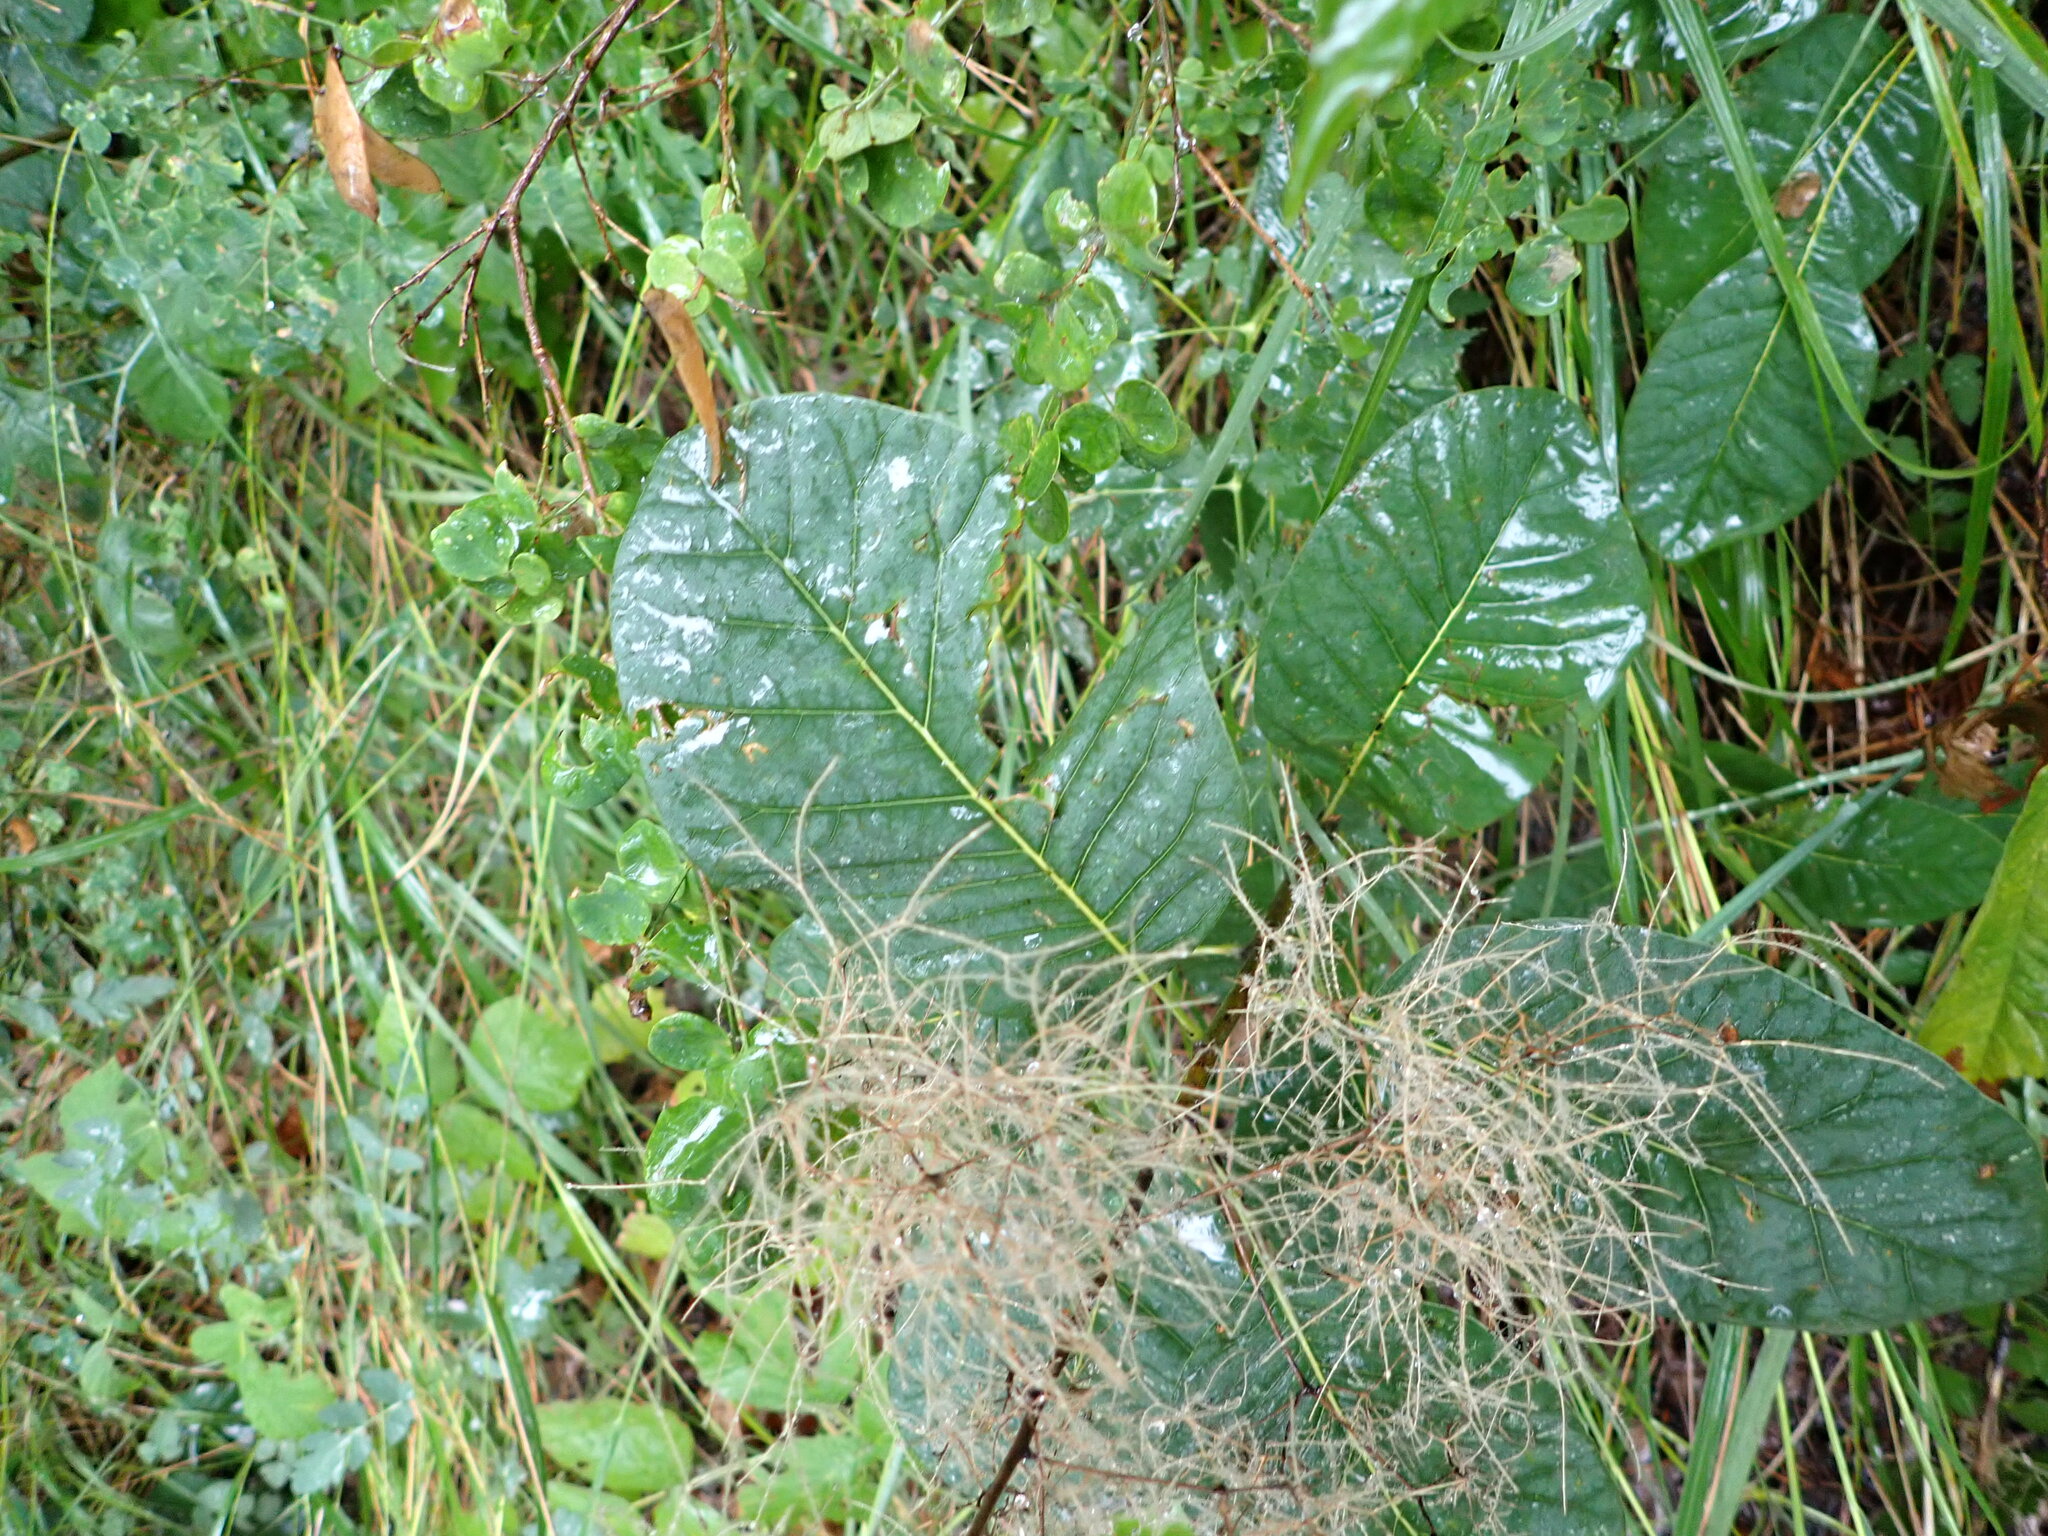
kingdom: Plantae
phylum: Tracheophyta
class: Magnoliopsida
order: Sapindales
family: Anacardiaceae
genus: Cotinus
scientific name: Cotinus coggygria
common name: Smoke-tree
